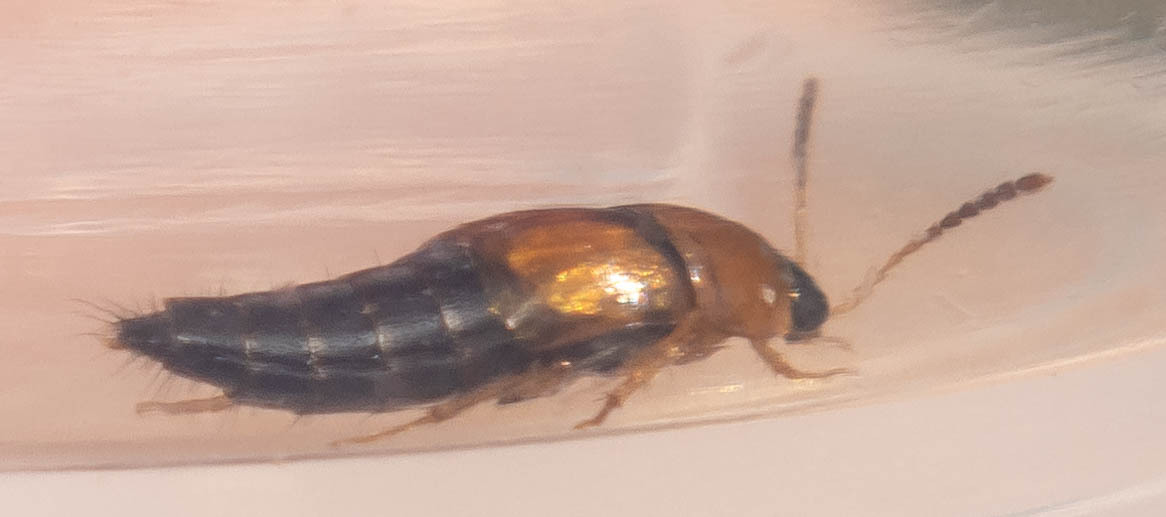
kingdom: Animalia
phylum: Arthropoda
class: Insecta
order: Coleoptera
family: Staphylinidae
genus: Tachyporus
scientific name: Tachyporus solutus
